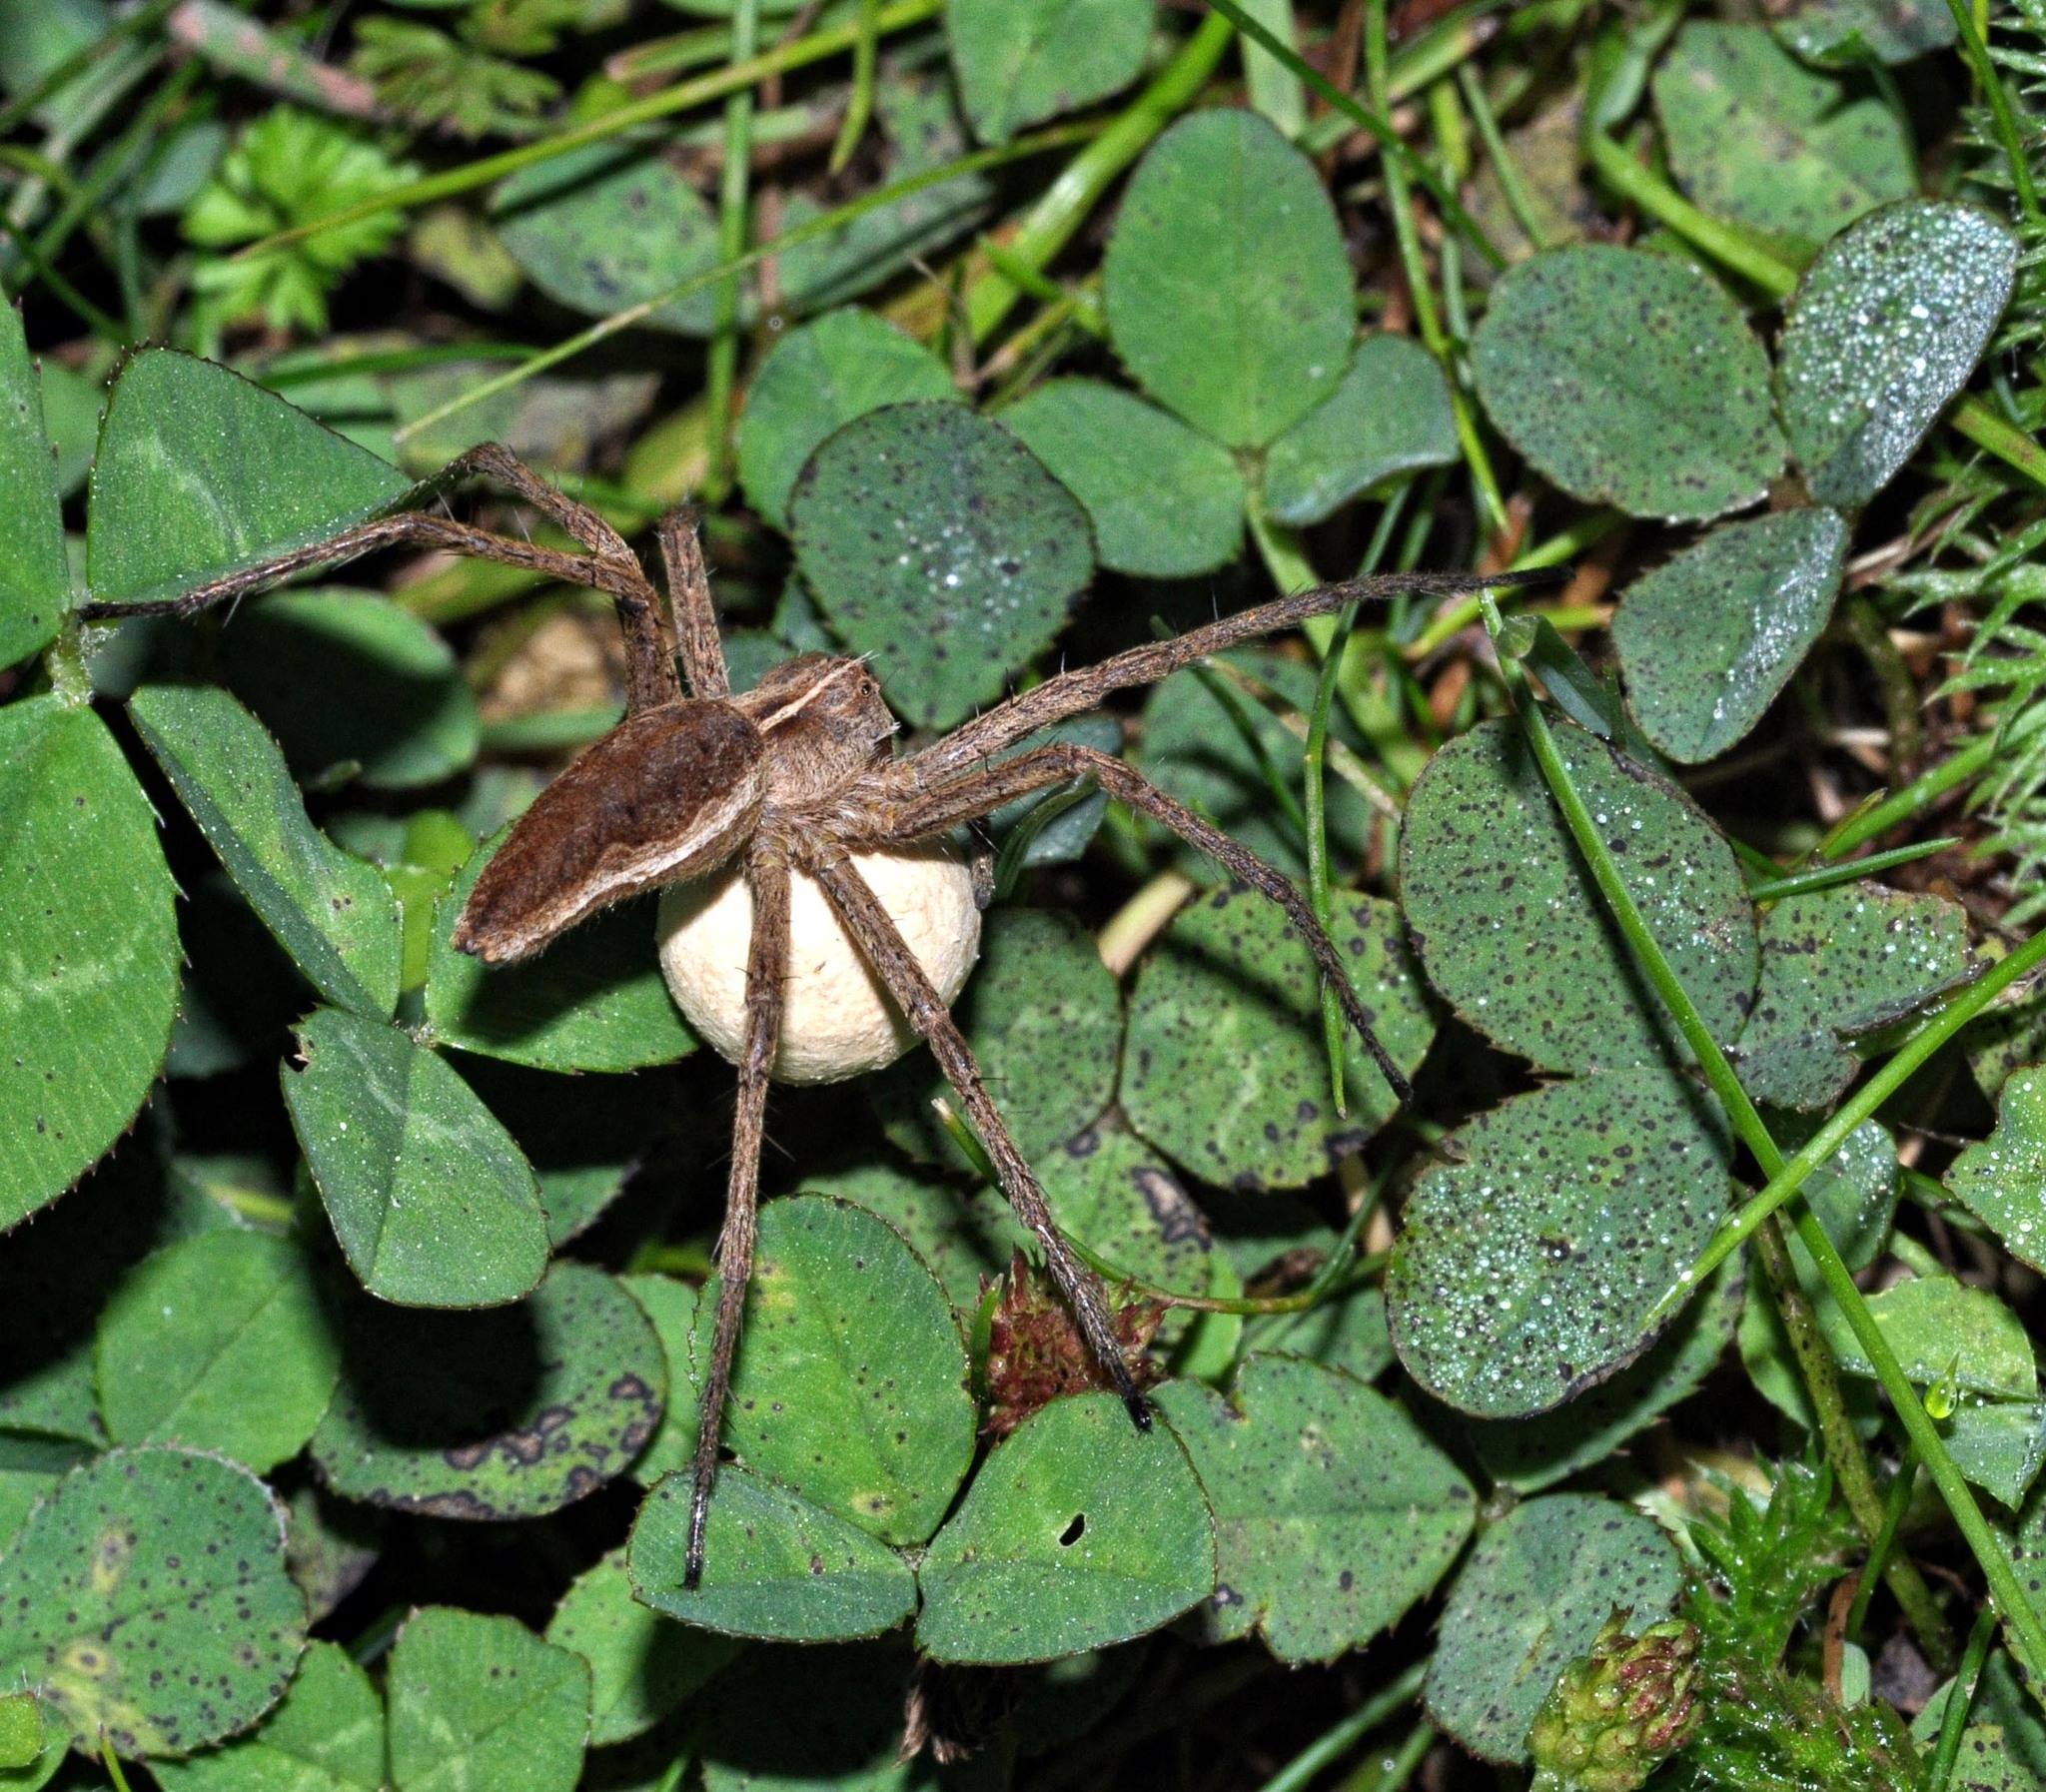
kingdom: Animalia
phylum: Arthropoda
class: Arachnida
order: Araneae
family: Pisauridae
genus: Pisaura
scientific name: Pisaura mirabilis
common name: Tent spider
